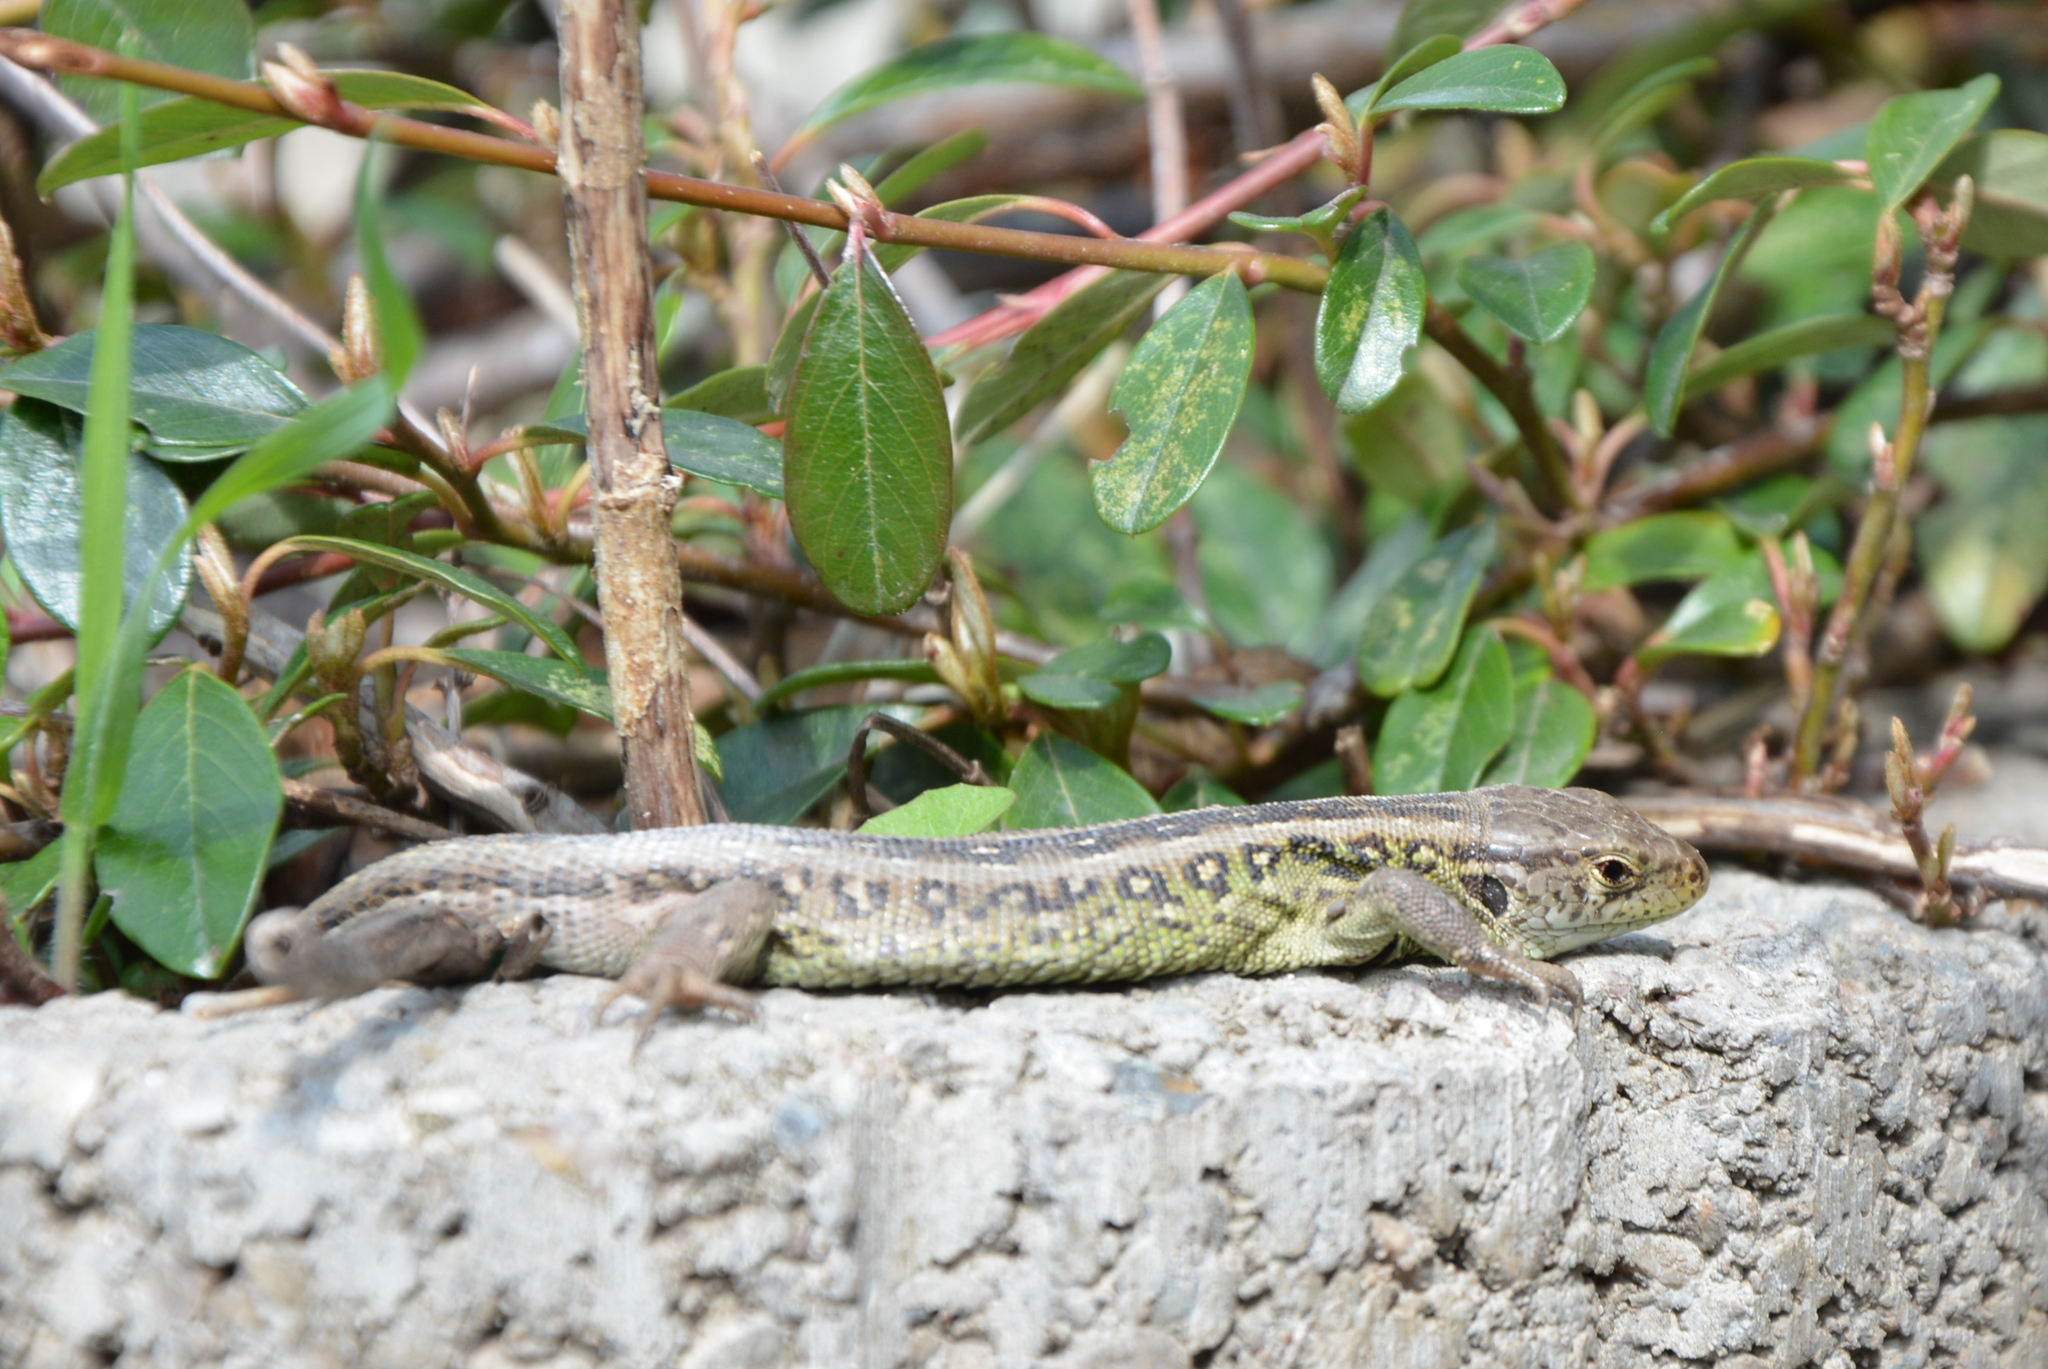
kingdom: Animalia
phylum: Chordata
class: Squamata
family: Lacertidae
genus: Lacerta
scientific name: Lacerta agilis
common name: Sand lizard
